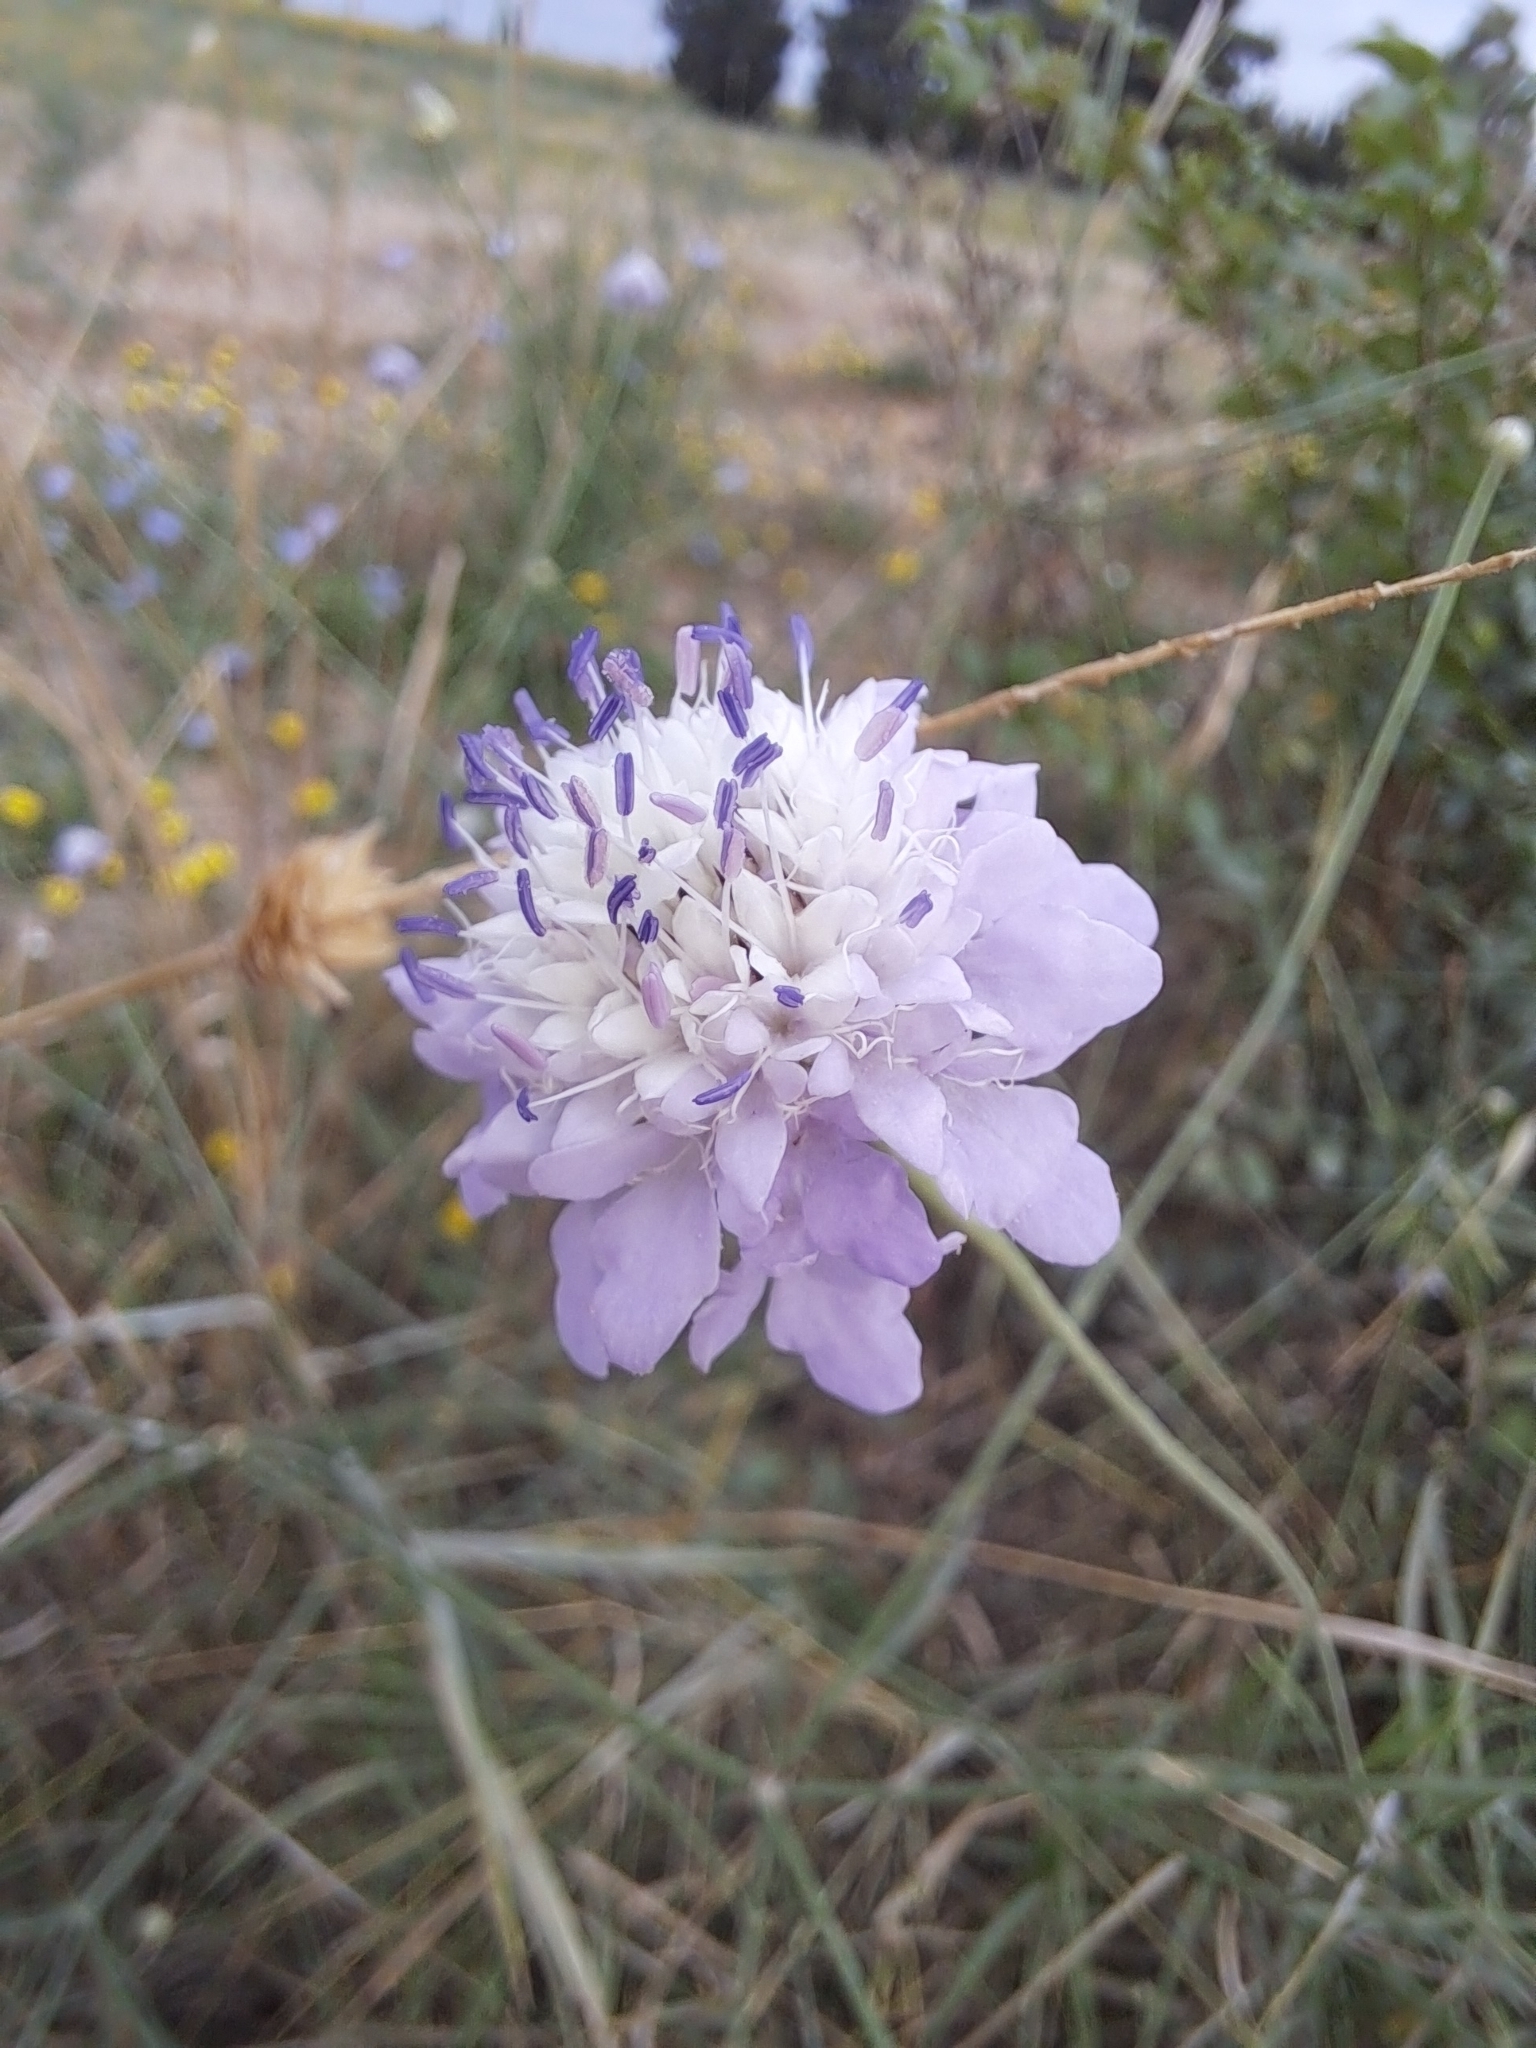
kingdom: Plantae
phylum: Tracheophyta
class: Magnoliopsida
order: Dipsacales
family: Caprifoliaceae
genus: Cephalaria
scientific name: Cephalaria transsylvanica
